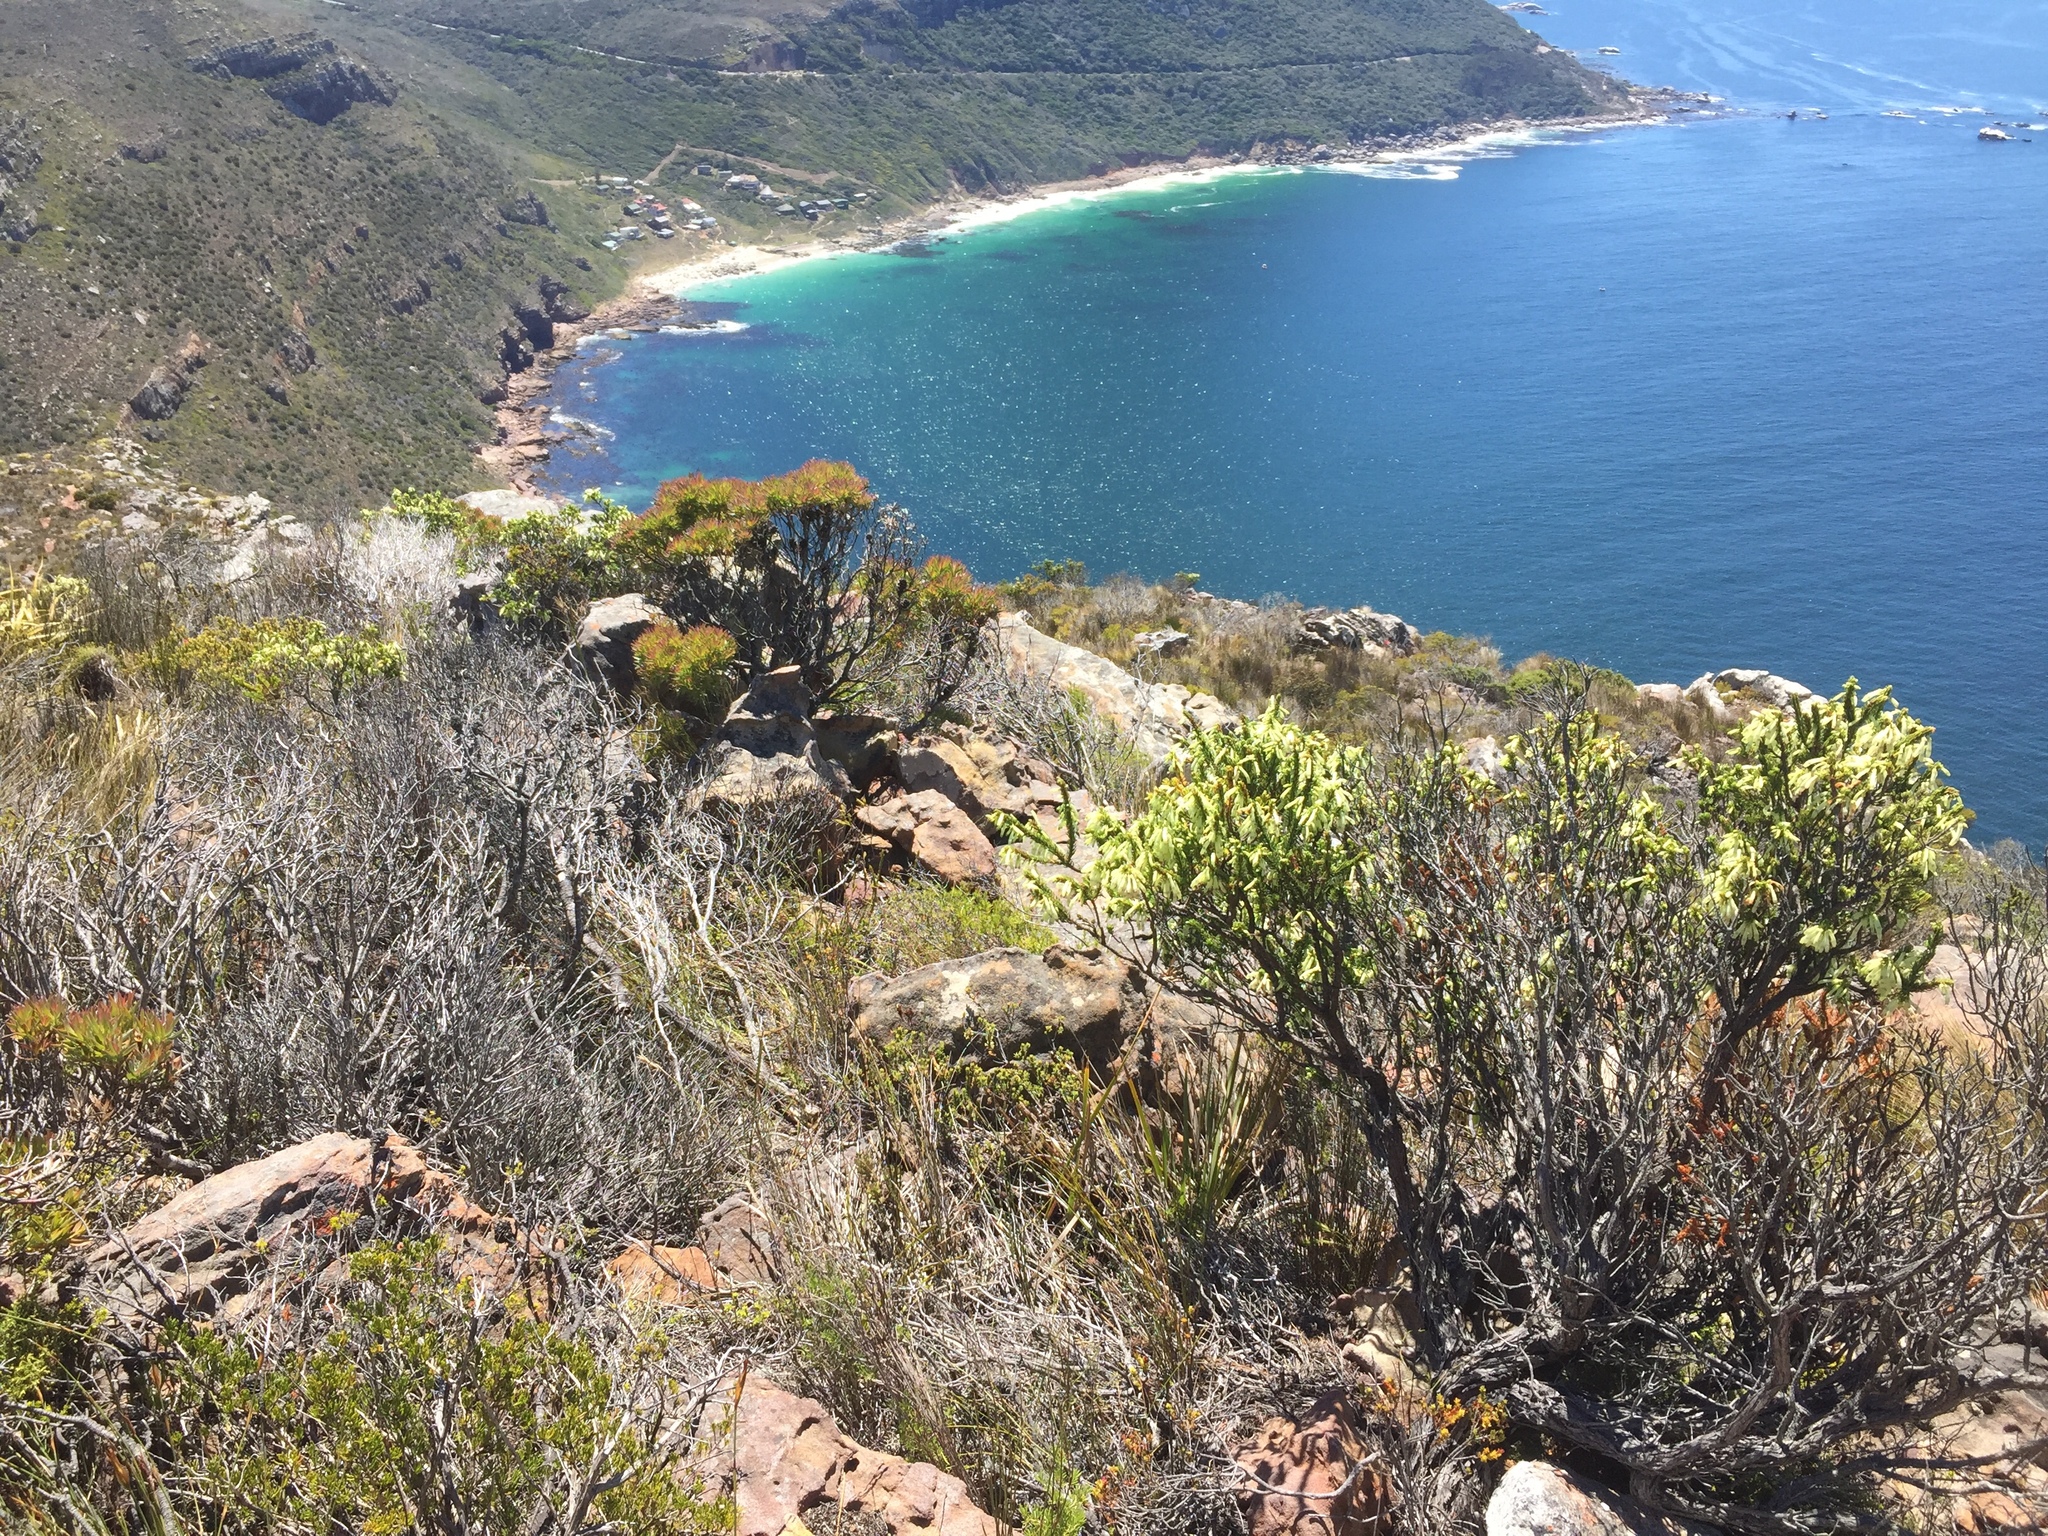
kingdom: Plantae
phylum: Tracheophyta
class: Magnoliopsida
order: Ericales
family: Ericaceae
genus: Erica
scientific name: Erica mammosa
